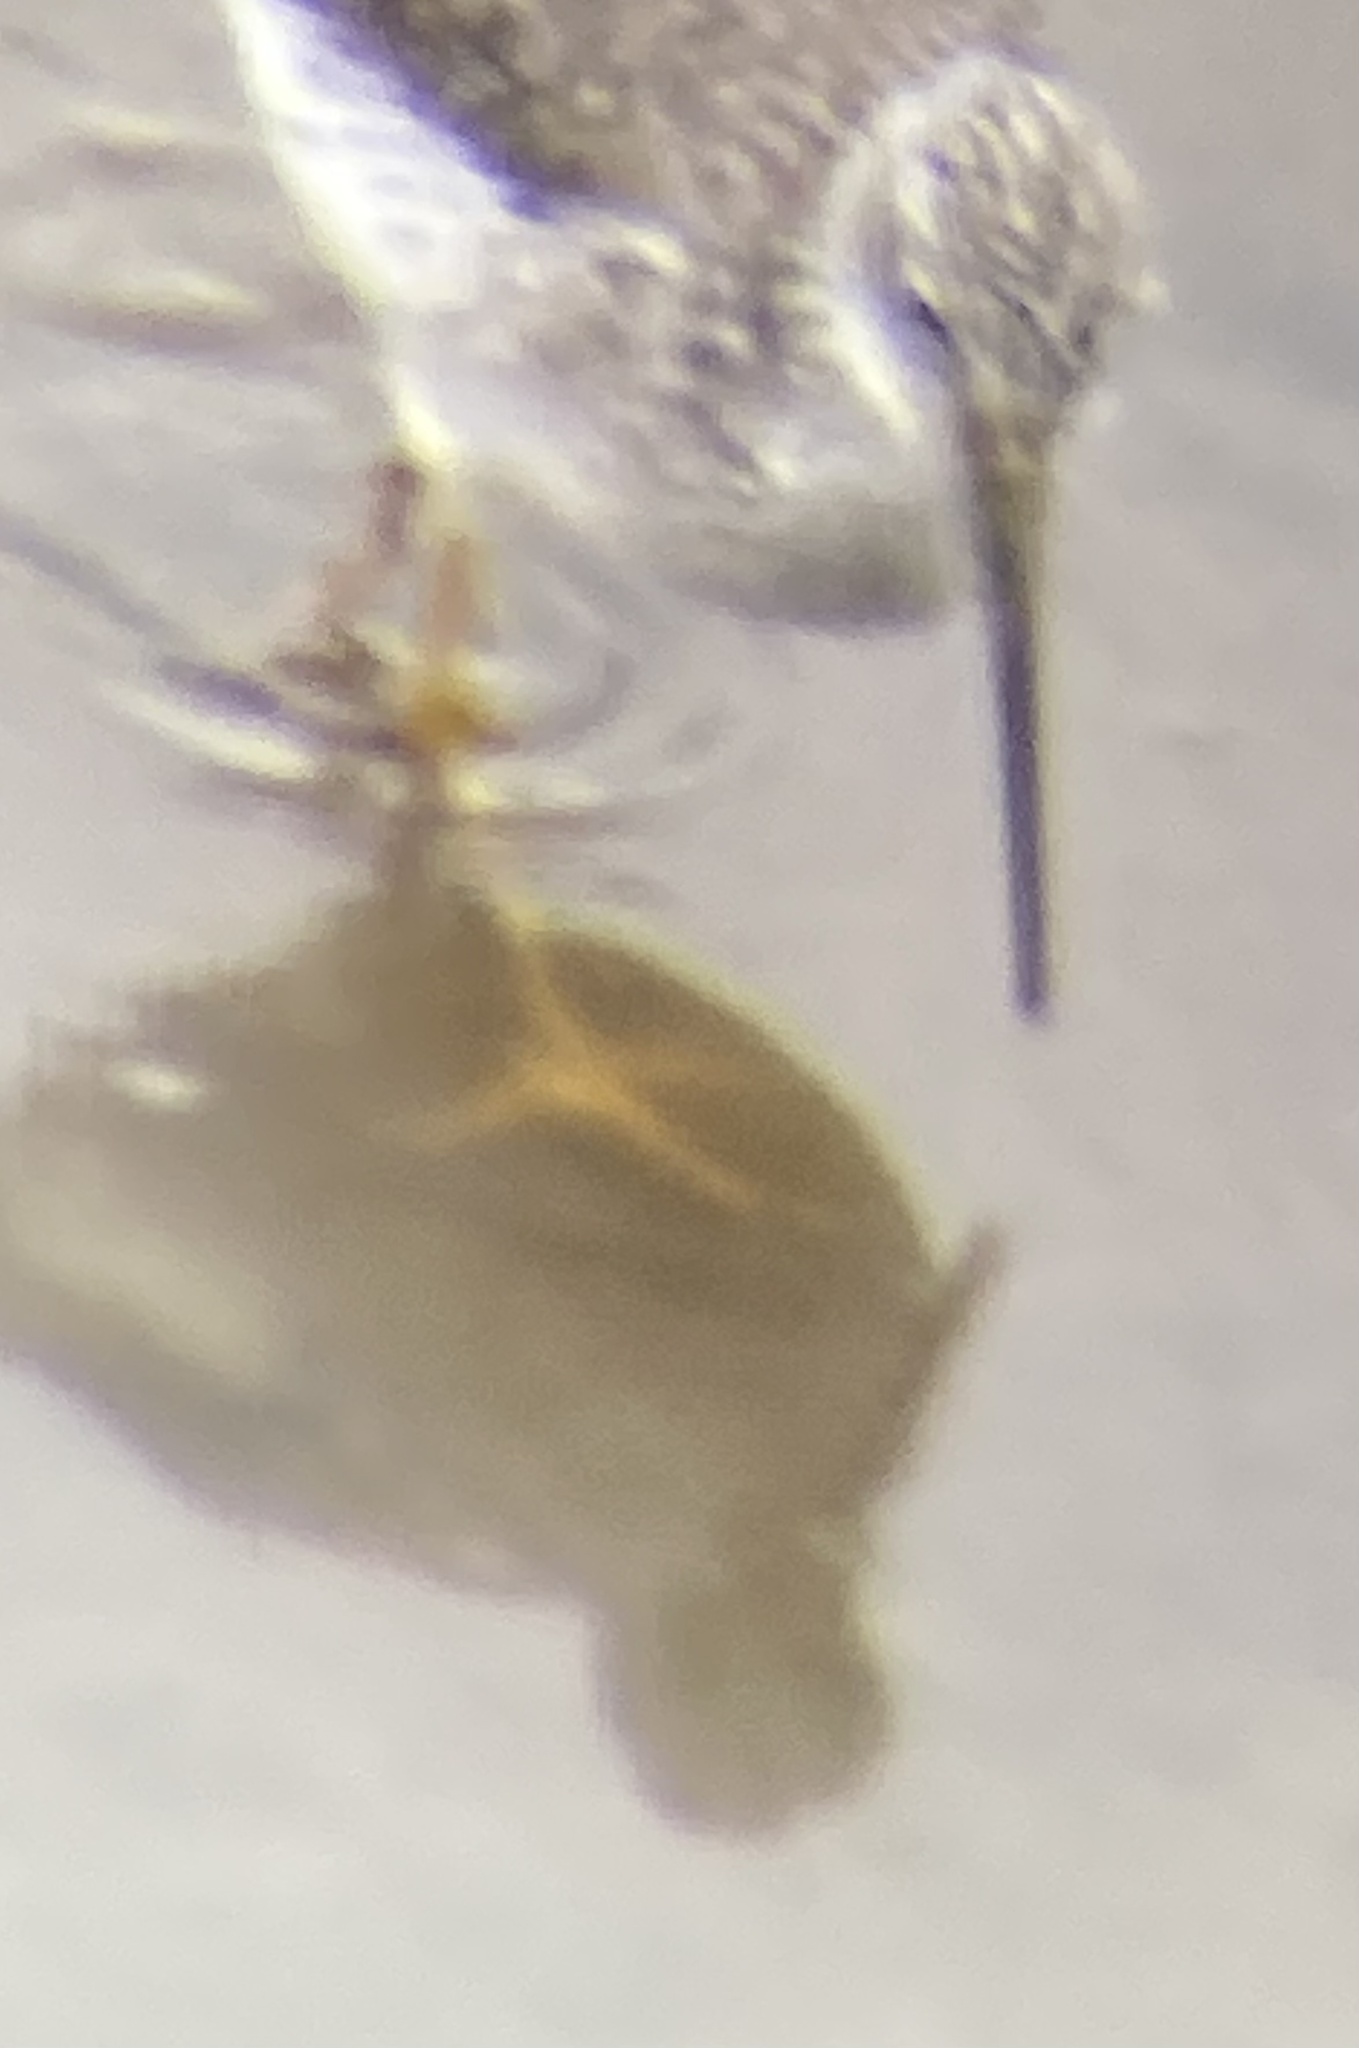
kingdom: Animalia
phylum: Chordata
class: Aves
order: Charadriiformes
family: Scolopacidae
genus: Tringa
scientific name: Tringa melanoleuca
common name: Greater yellowlegs
